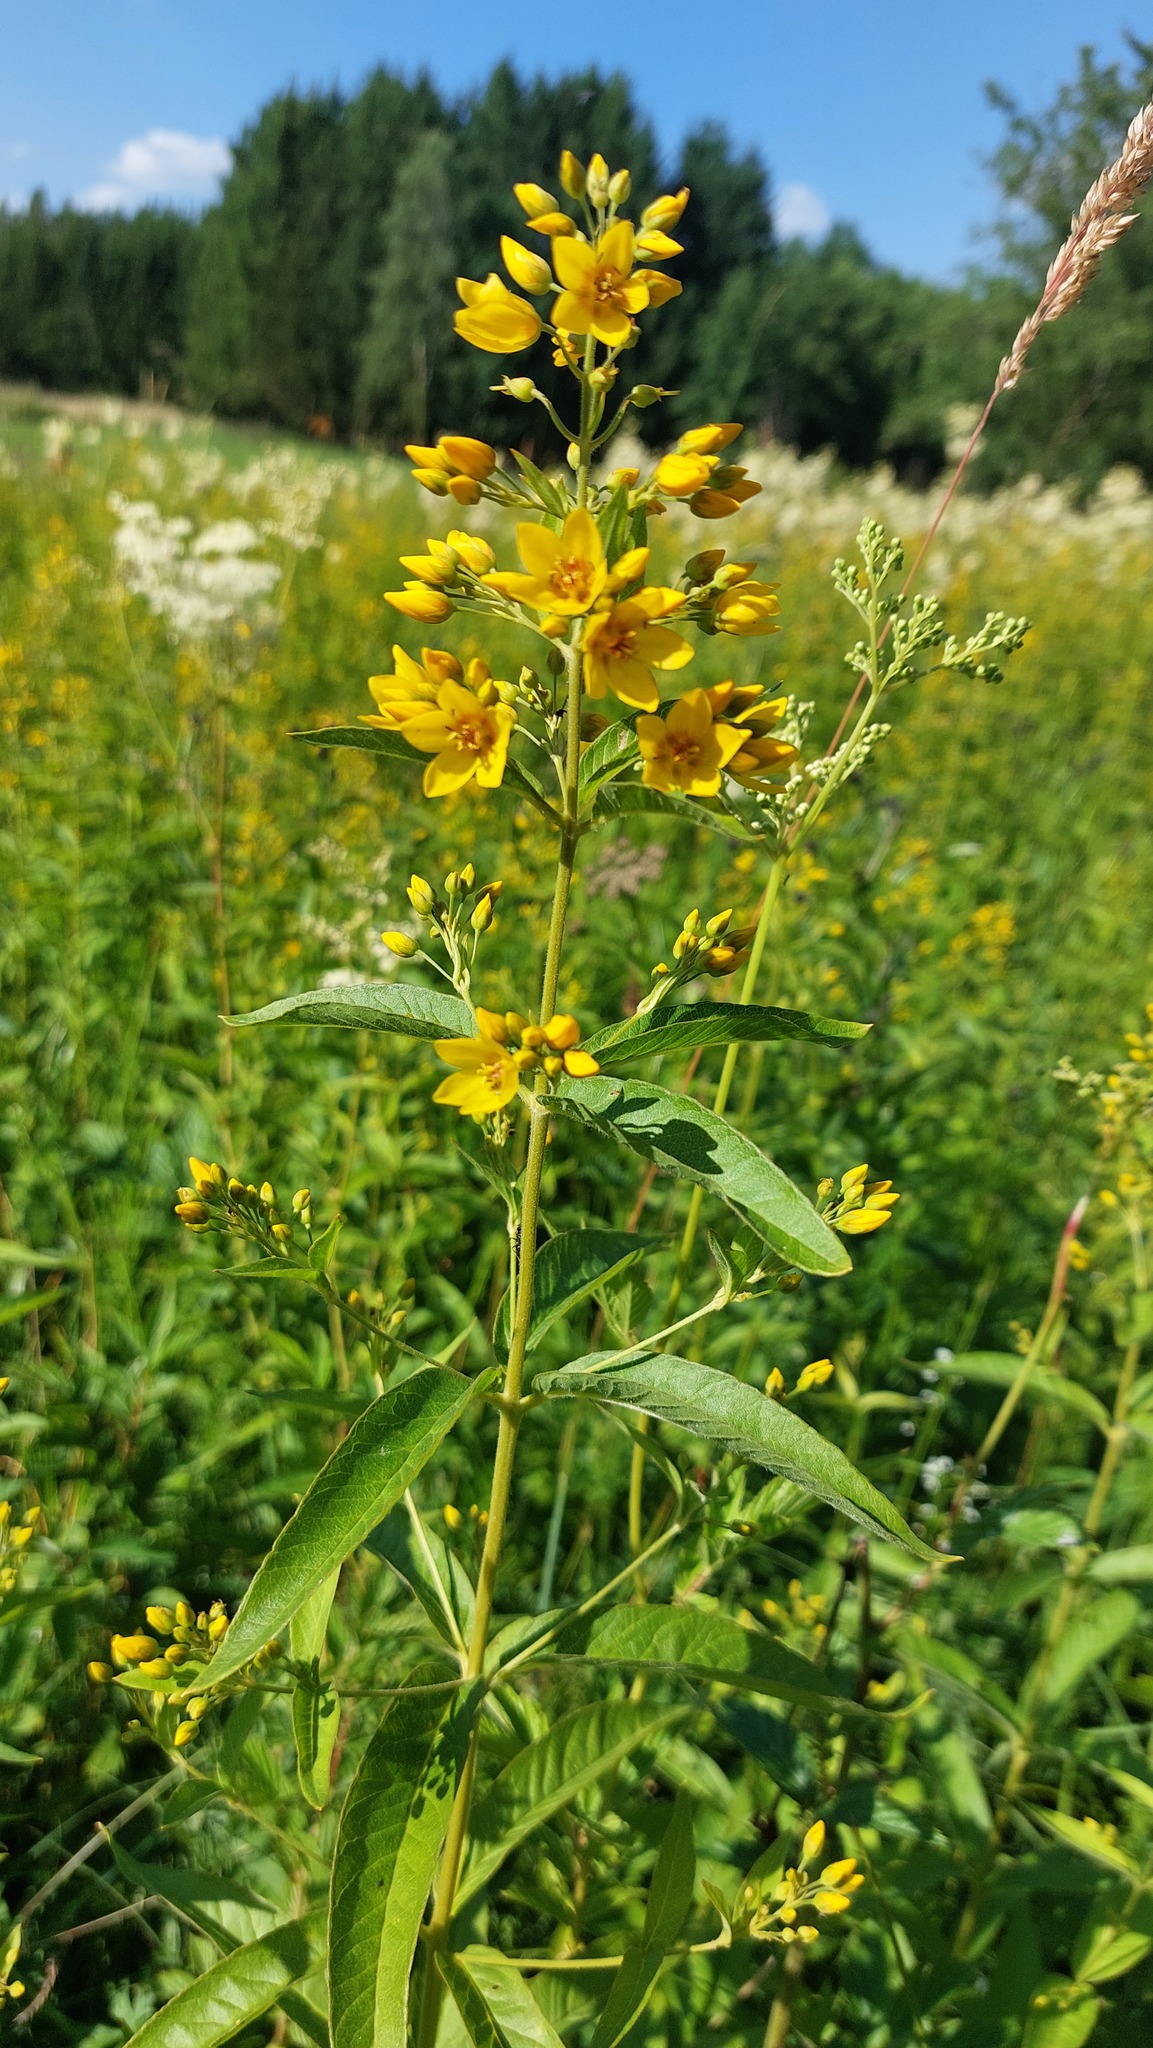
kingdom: Plantae
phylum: Tracheophyta
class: Magnoliopsida
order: Ericales
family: Primulaceae
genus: Lysimachia
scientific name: Lysimachia vulgaris
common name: Yellow loosestrife
